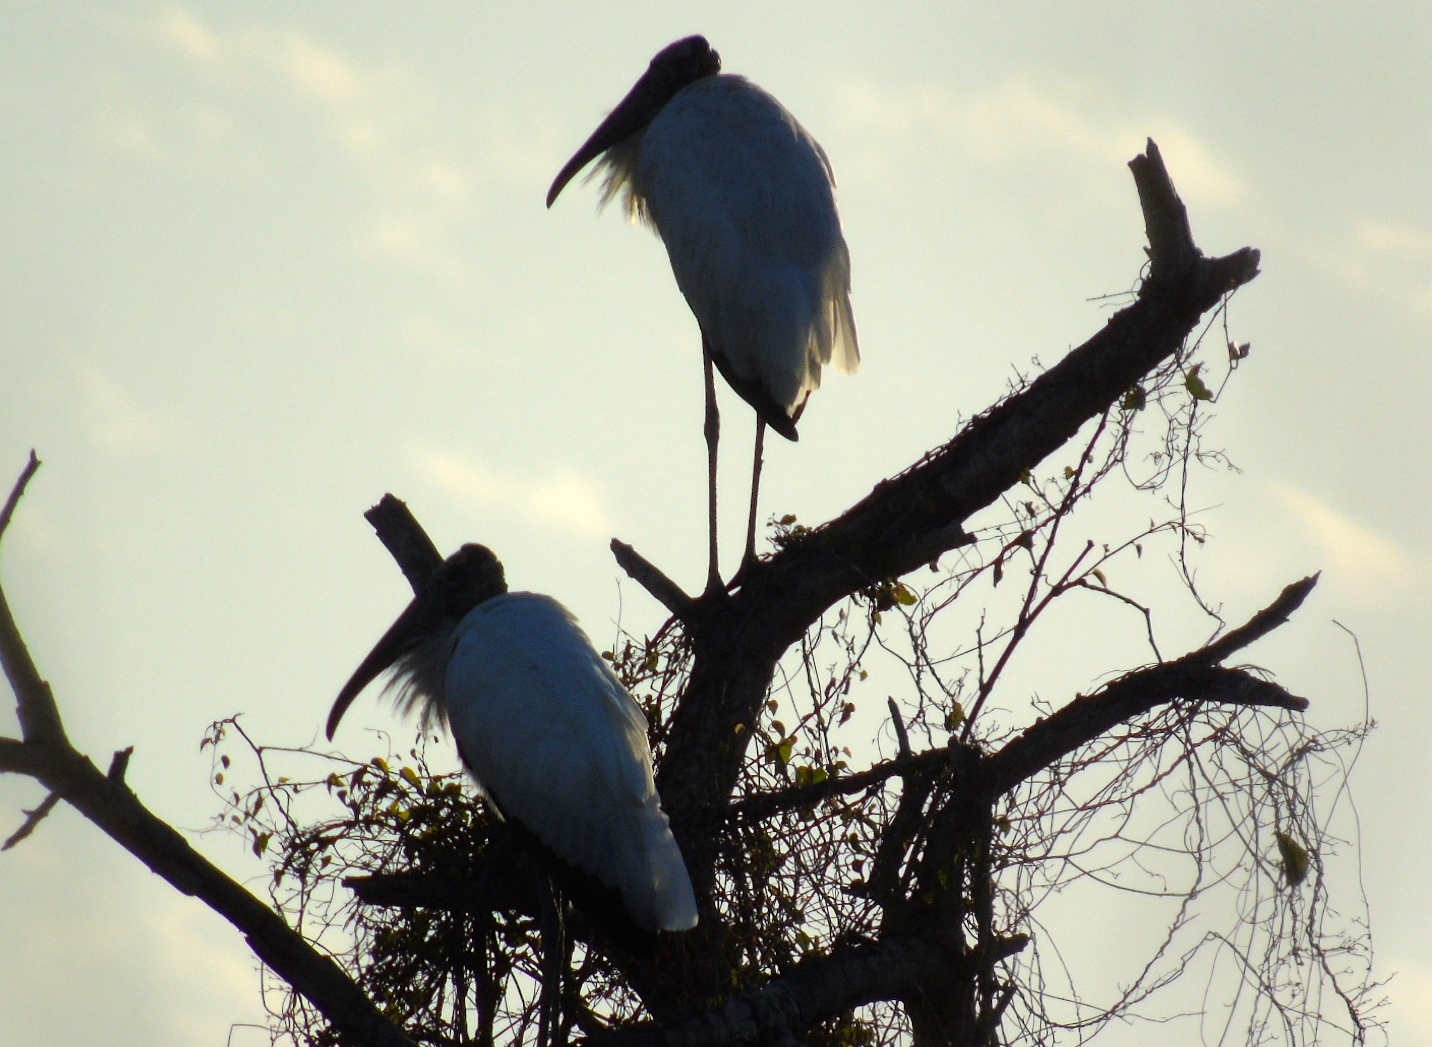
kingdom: Animalia
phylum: Chordata
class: Aves
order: Ciconiiformes
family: Ciconiidae
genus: Mycteria
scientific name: Mycteria americana
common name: Wood stork
